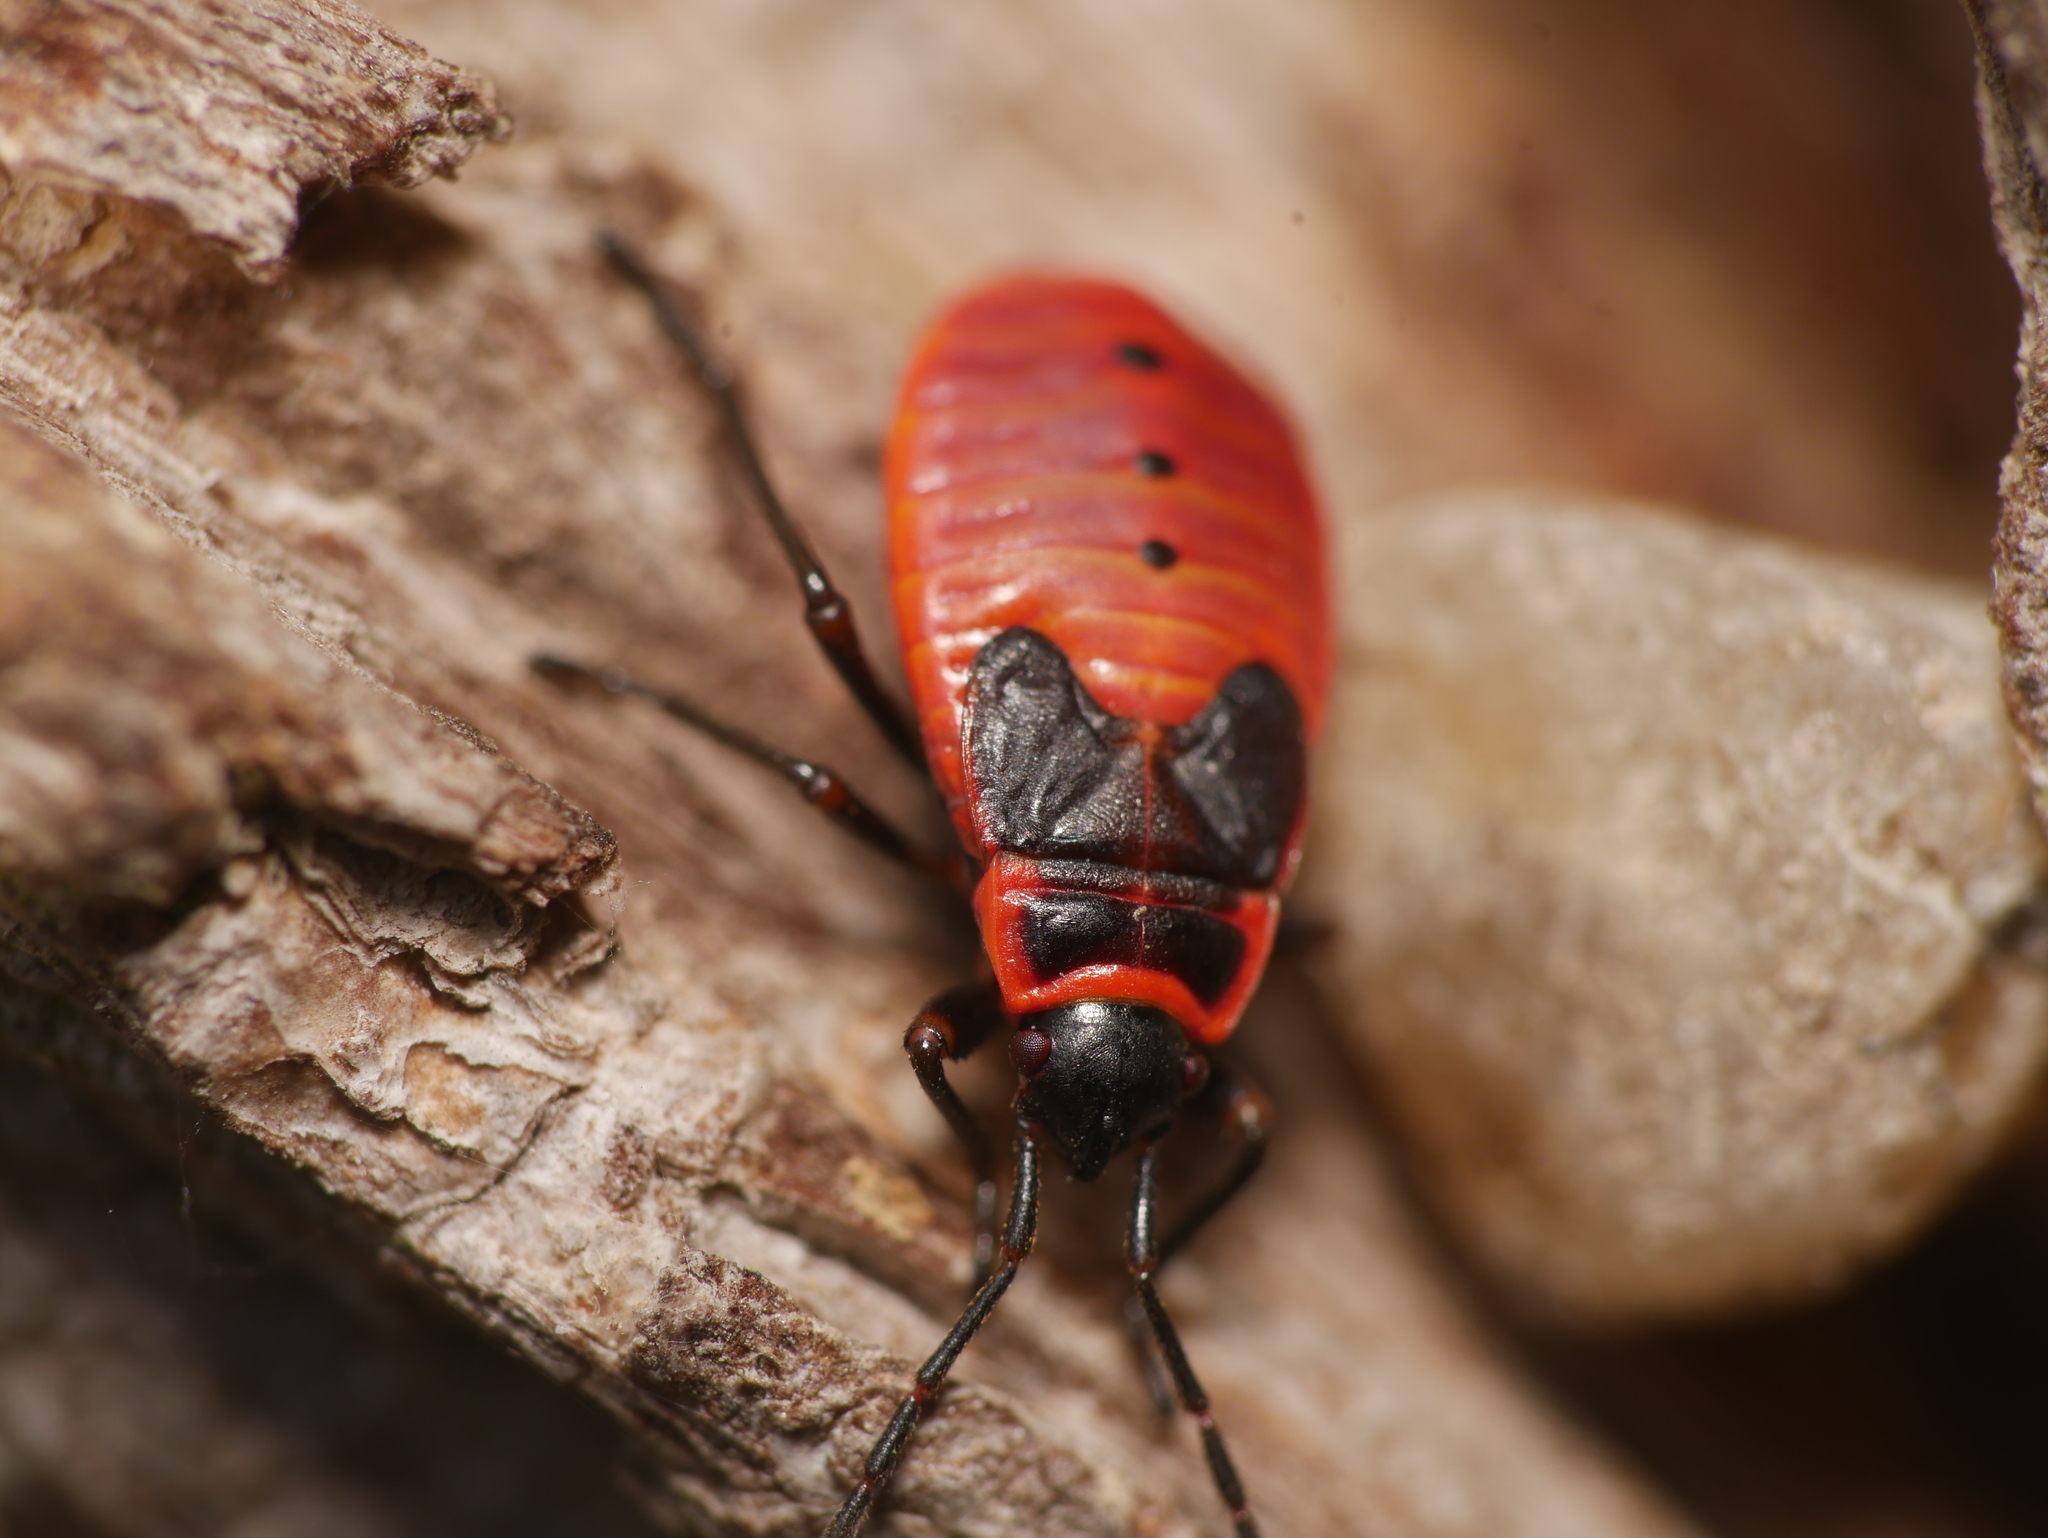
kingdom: Animalia
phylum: Arthropoda
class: Insecta
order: Hemiptera
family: Pyrrhocoridae
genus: Pyrrhocoris
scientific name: Pyrrhocoris apterus
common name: Firebug
